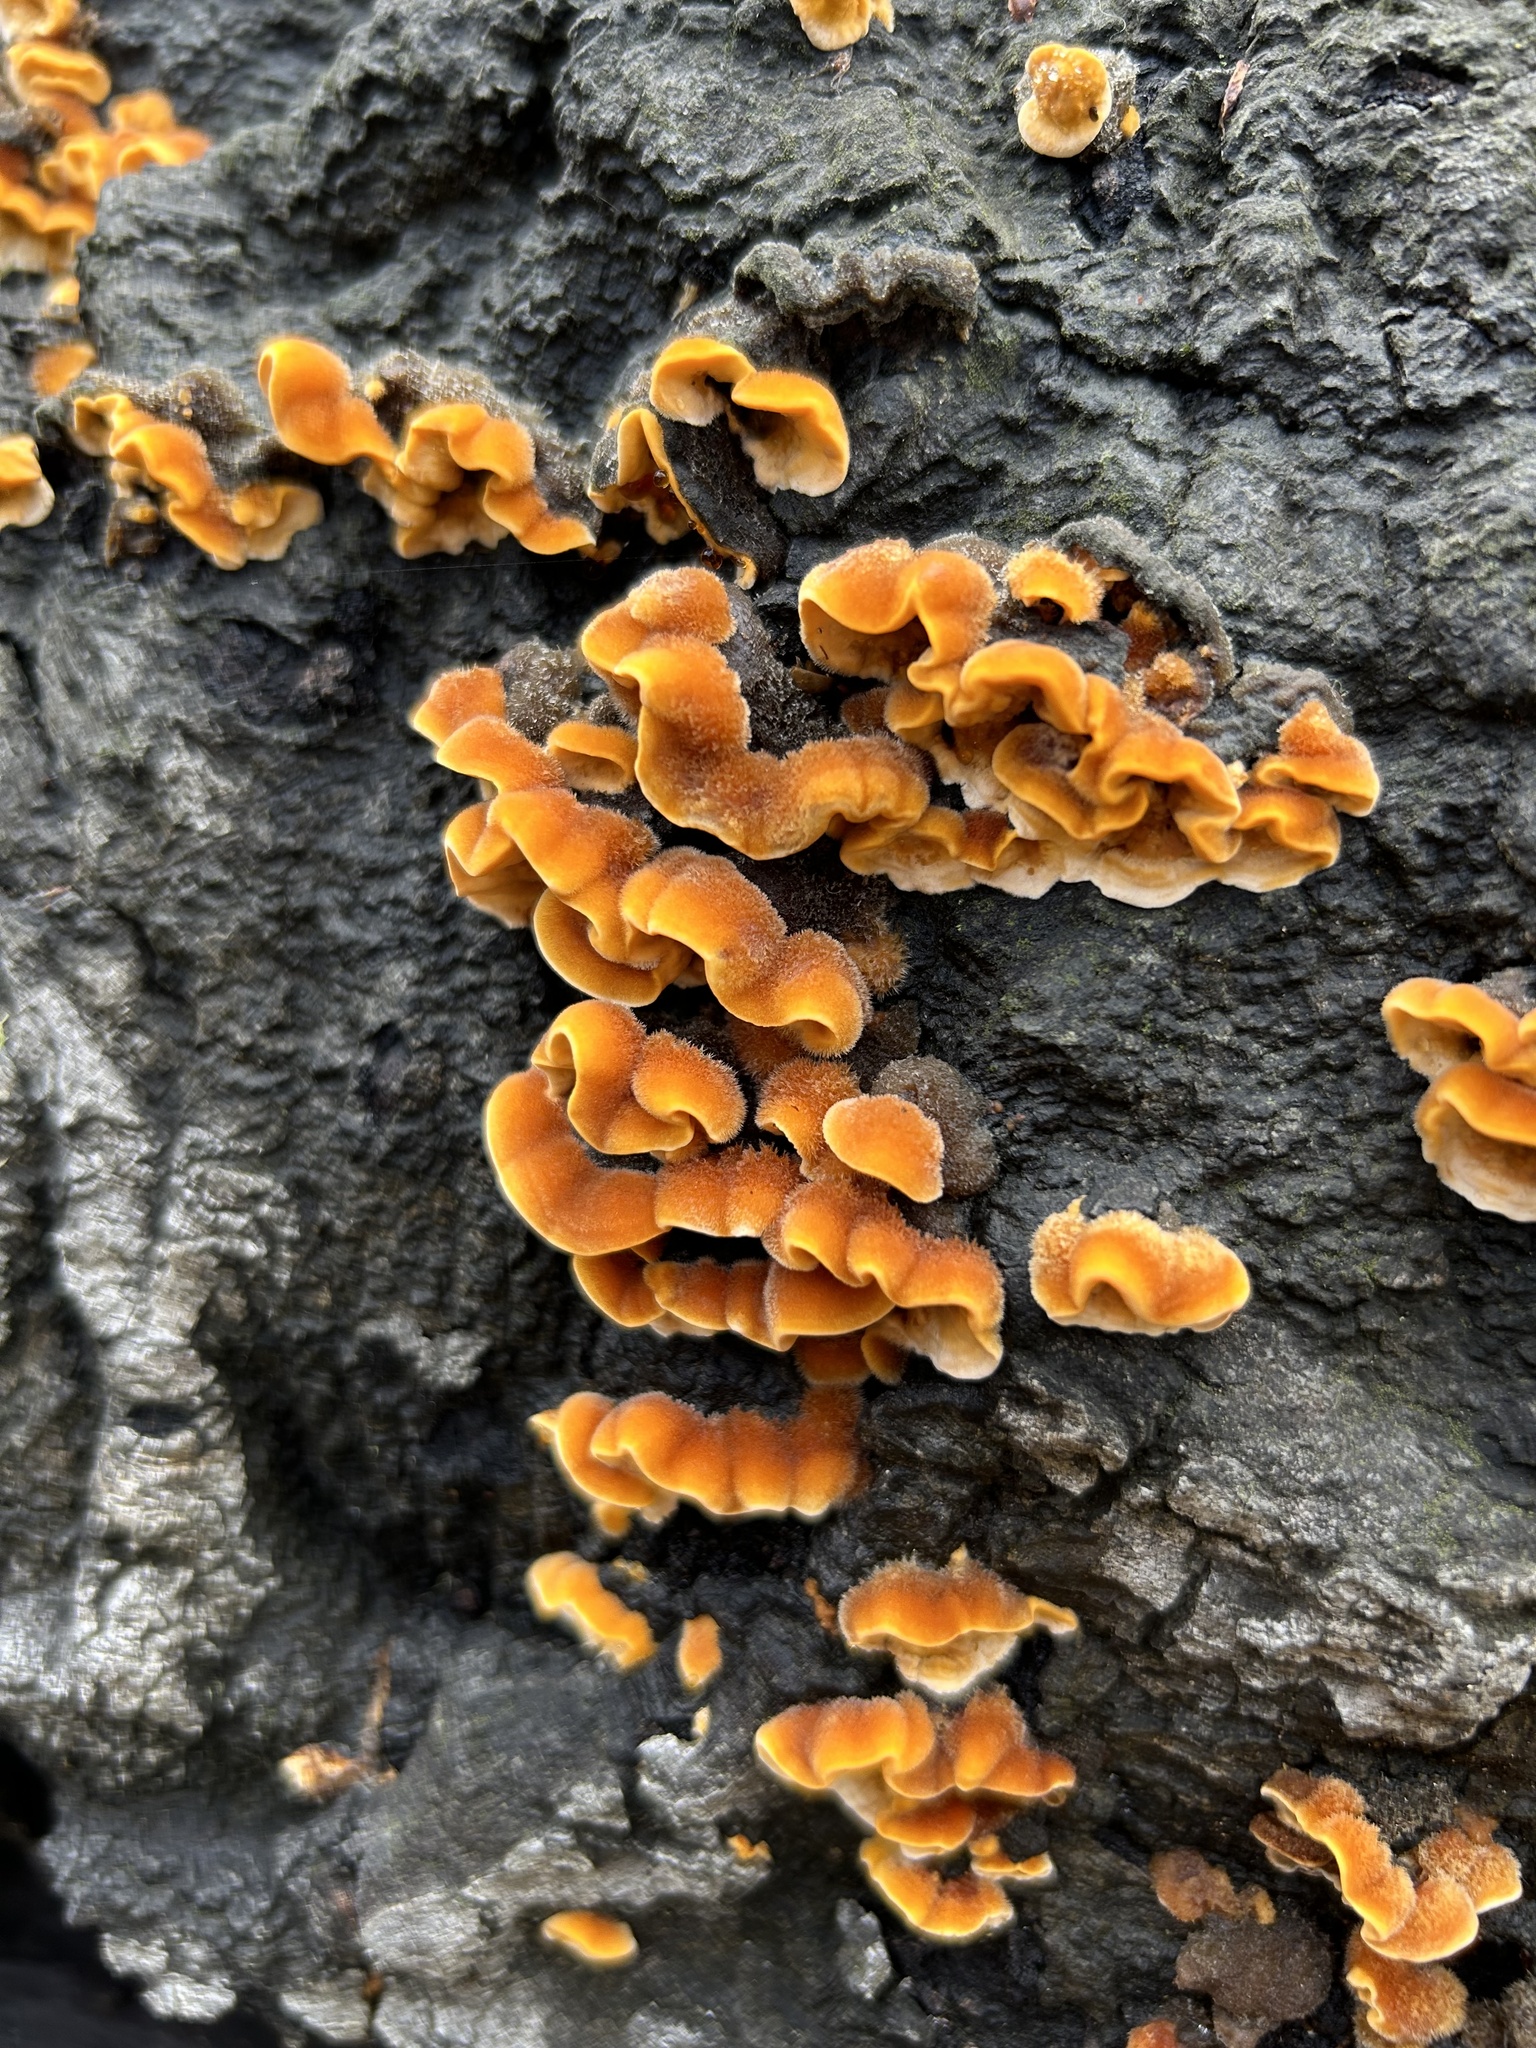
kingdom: Fungi
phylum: Basidiomycota
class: Agaricomycetes
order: Russulales
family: Stereaceae
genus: Stereum
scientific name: Stereum hirsutum
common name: Hairy curtain crust
